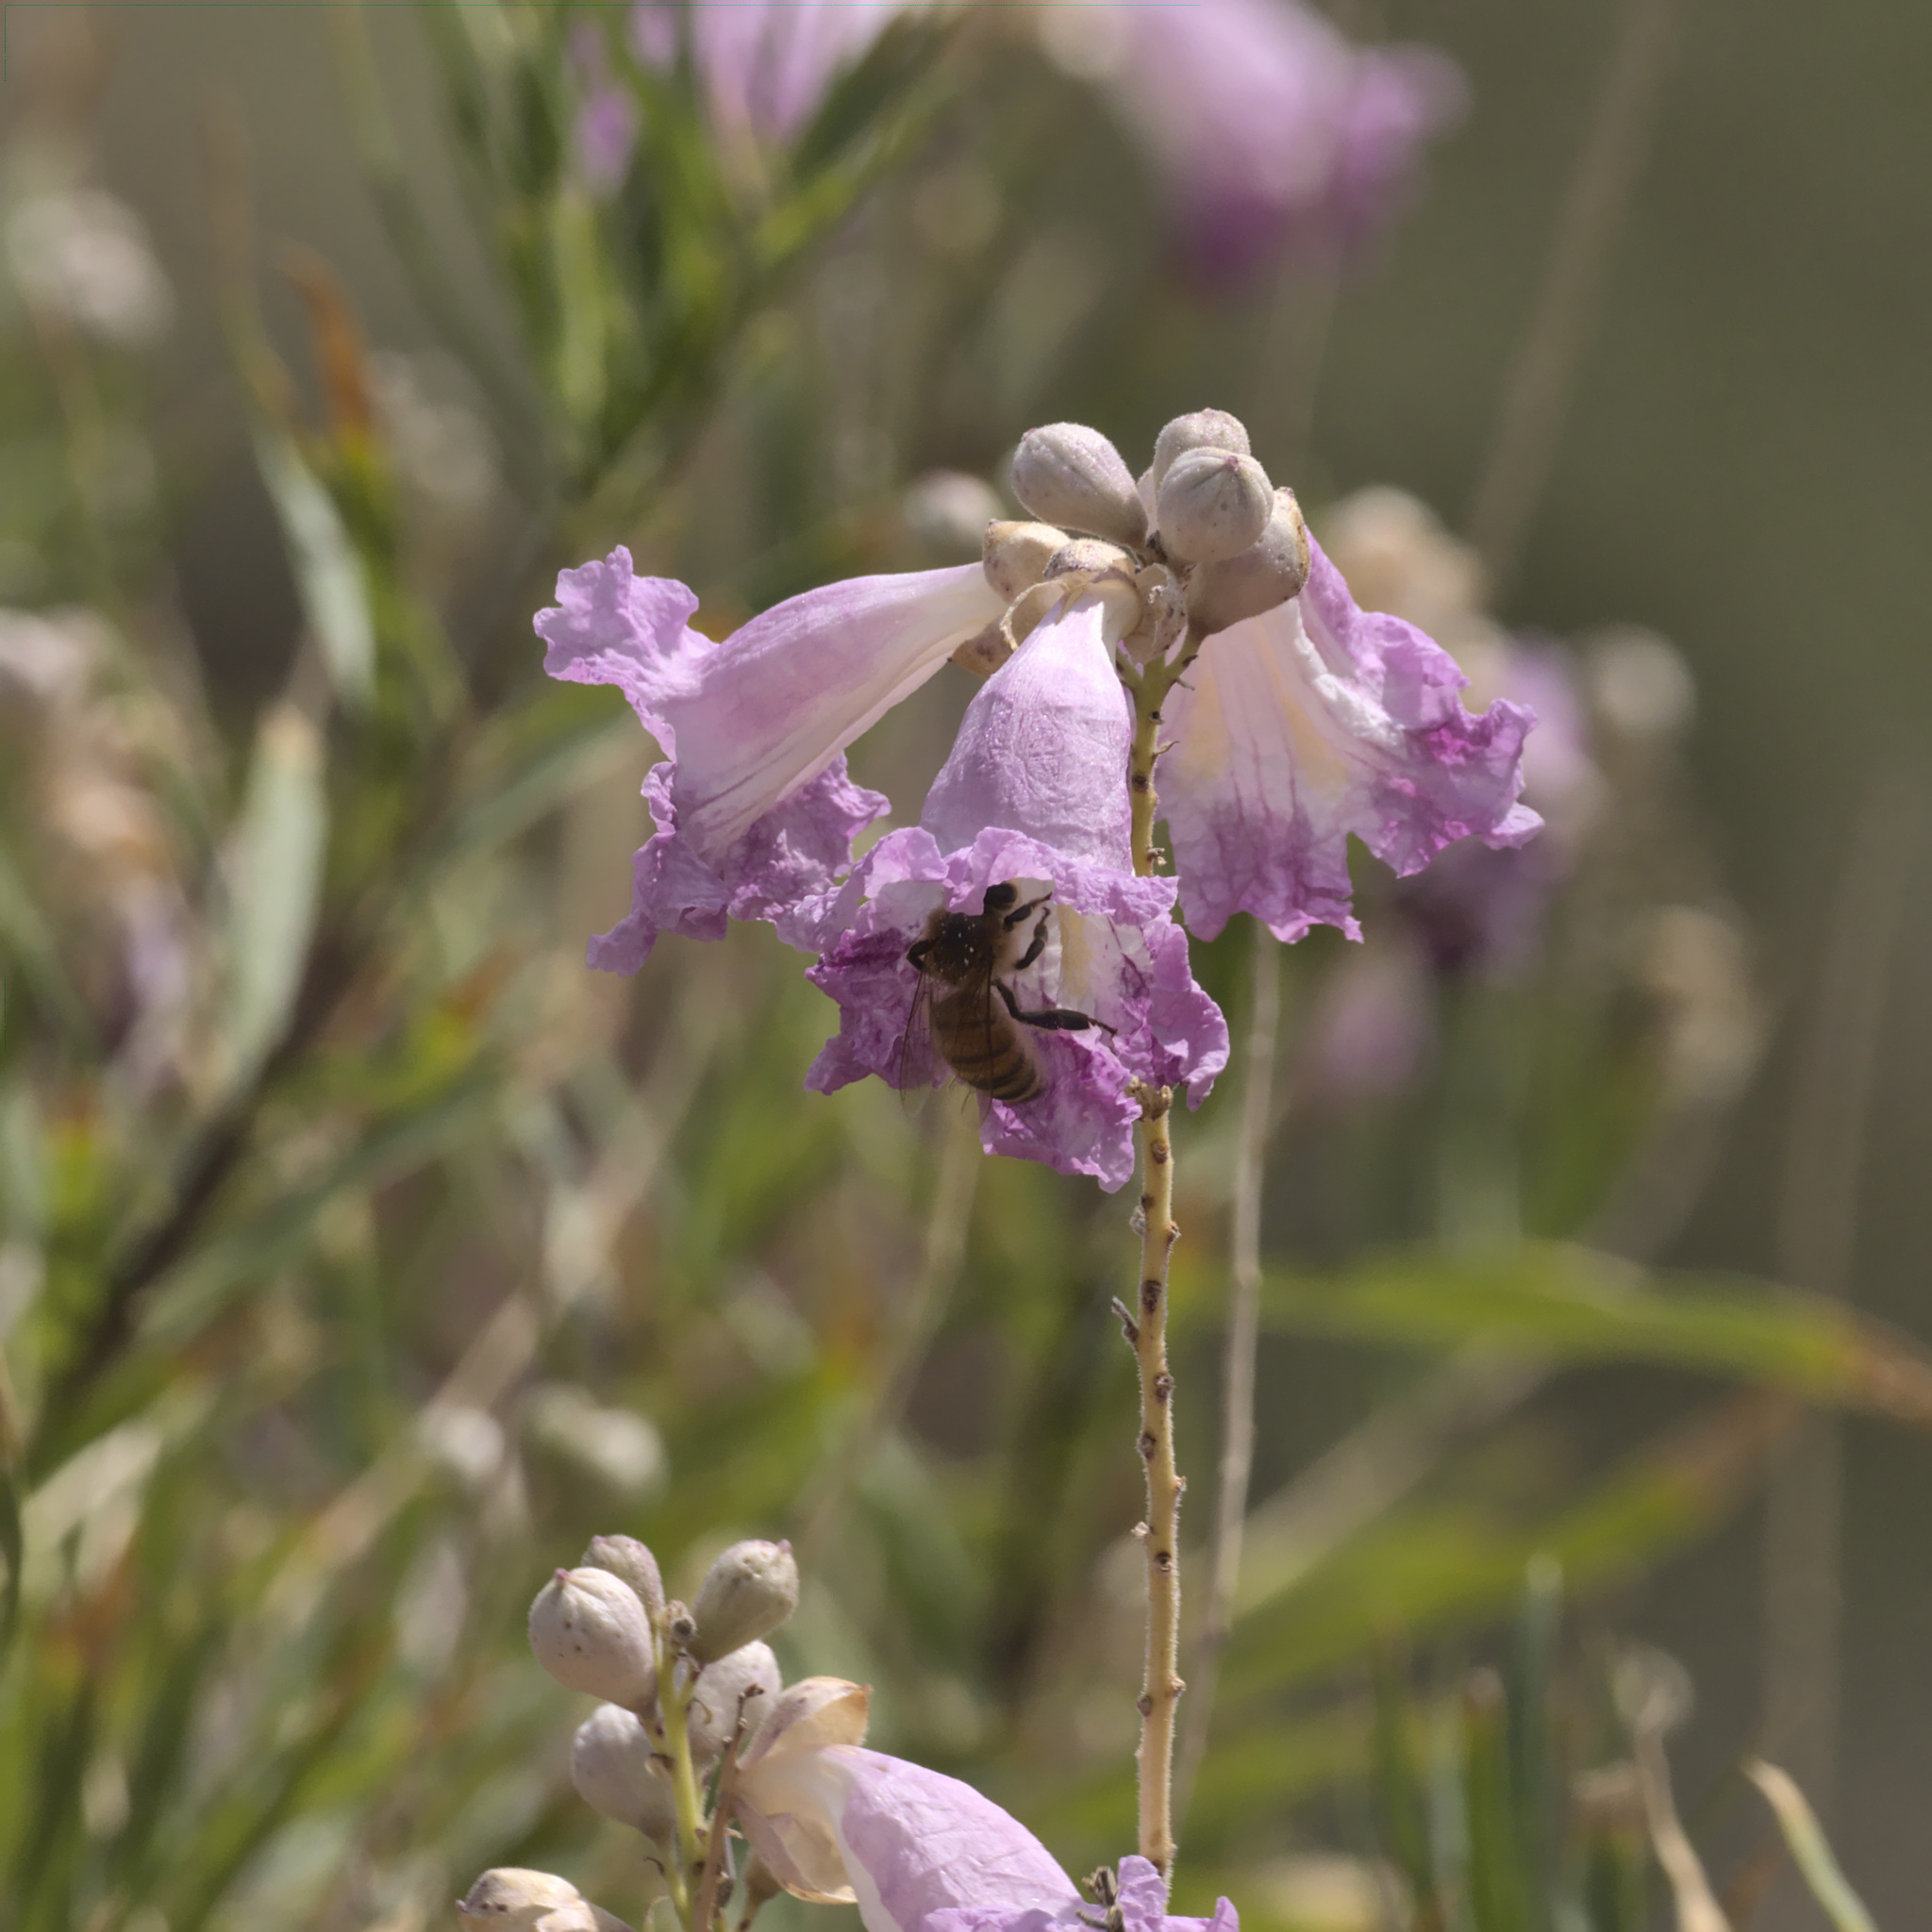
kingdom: Animalia
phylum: Arthropoda
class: Insecta
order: Hymenoptera
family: Apidae
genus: Apis
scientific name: Apis mellifera
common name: Honey bee
